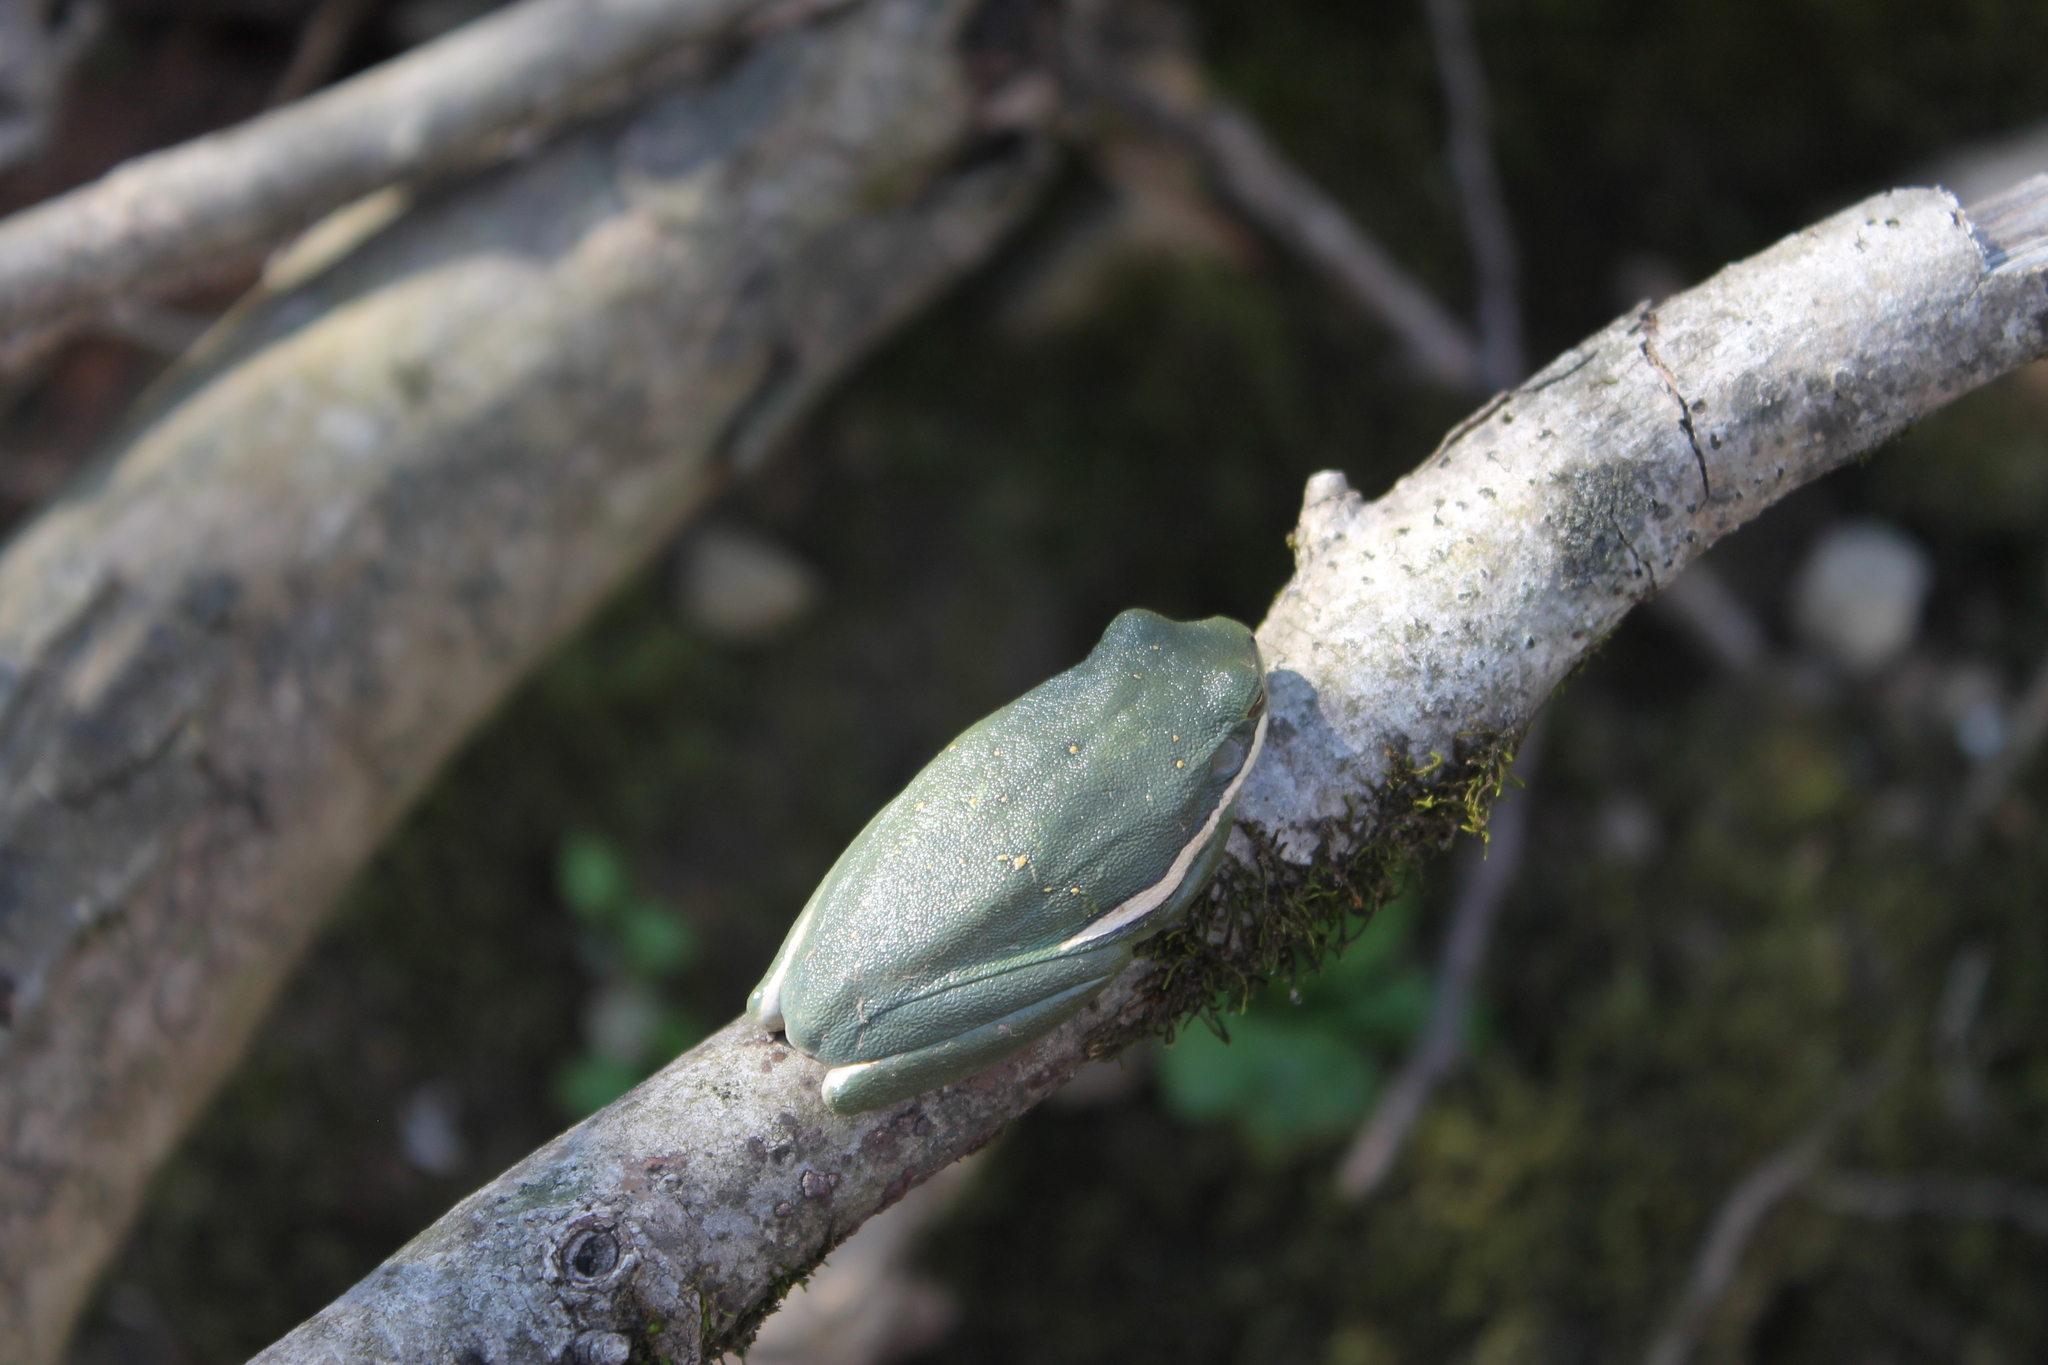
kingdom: Animalia
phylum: Chordata
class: Amphibia
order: Anura
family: Hylidae
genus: Dryophytes
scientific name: Dryophytes cinereus
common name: Green treefrog
